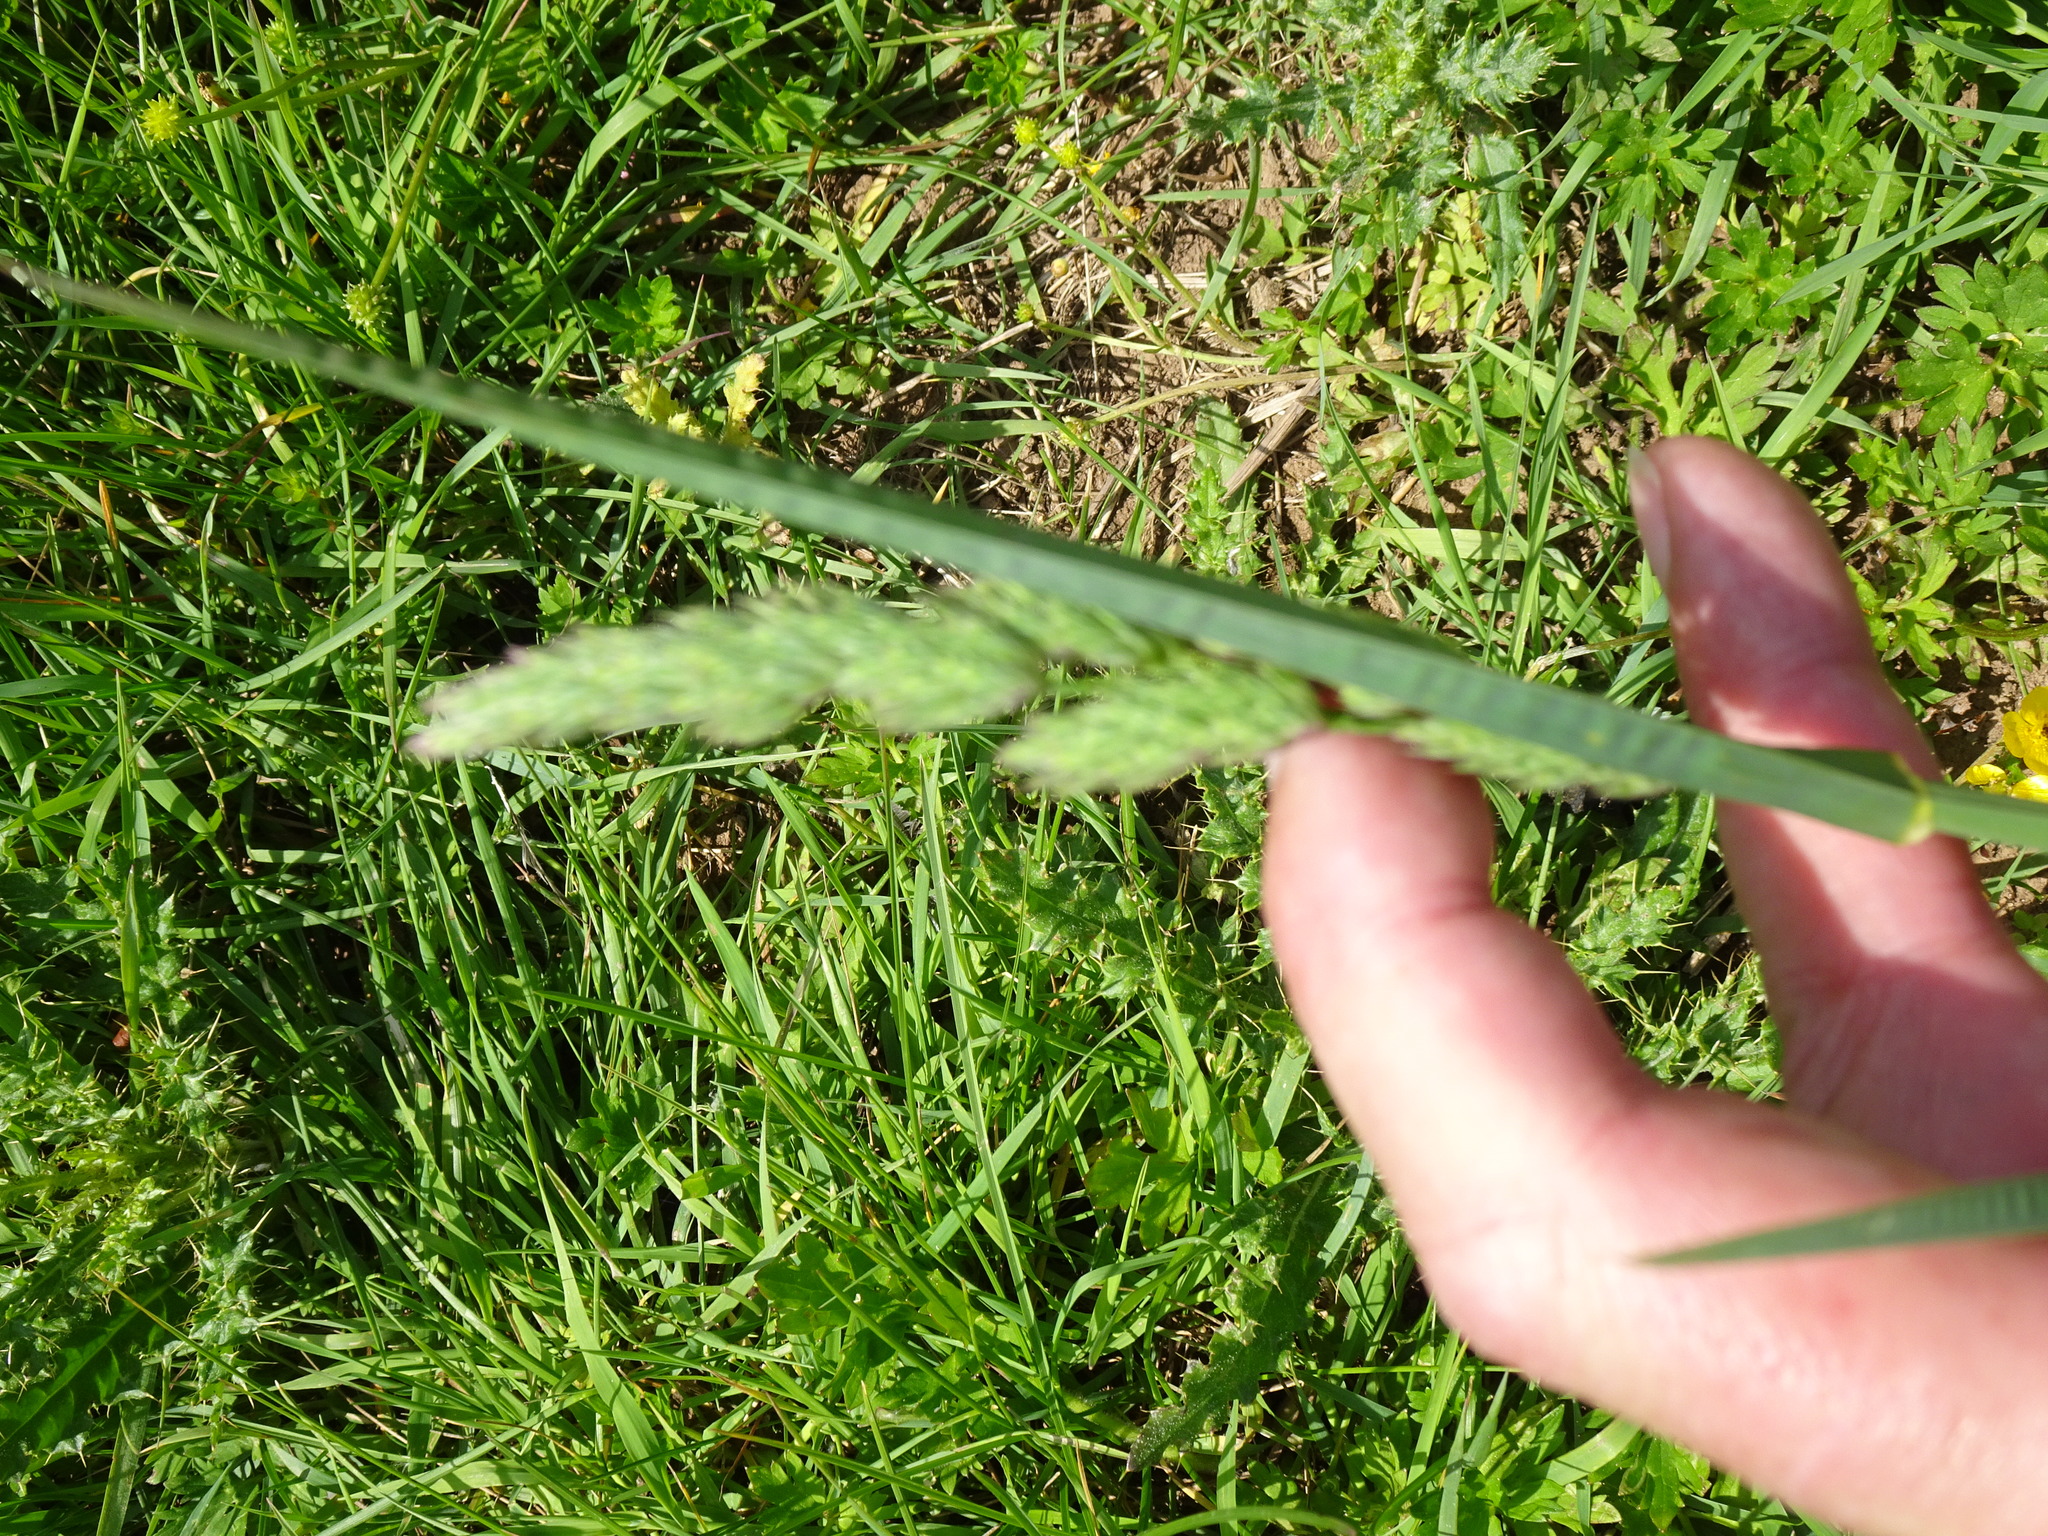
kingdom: Plantae
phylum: Tracheophyta
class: Liliopsida
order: Poales
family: Poaceae
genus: Dactylis
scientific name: Dactylis glomerata
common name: Orchardgrass
